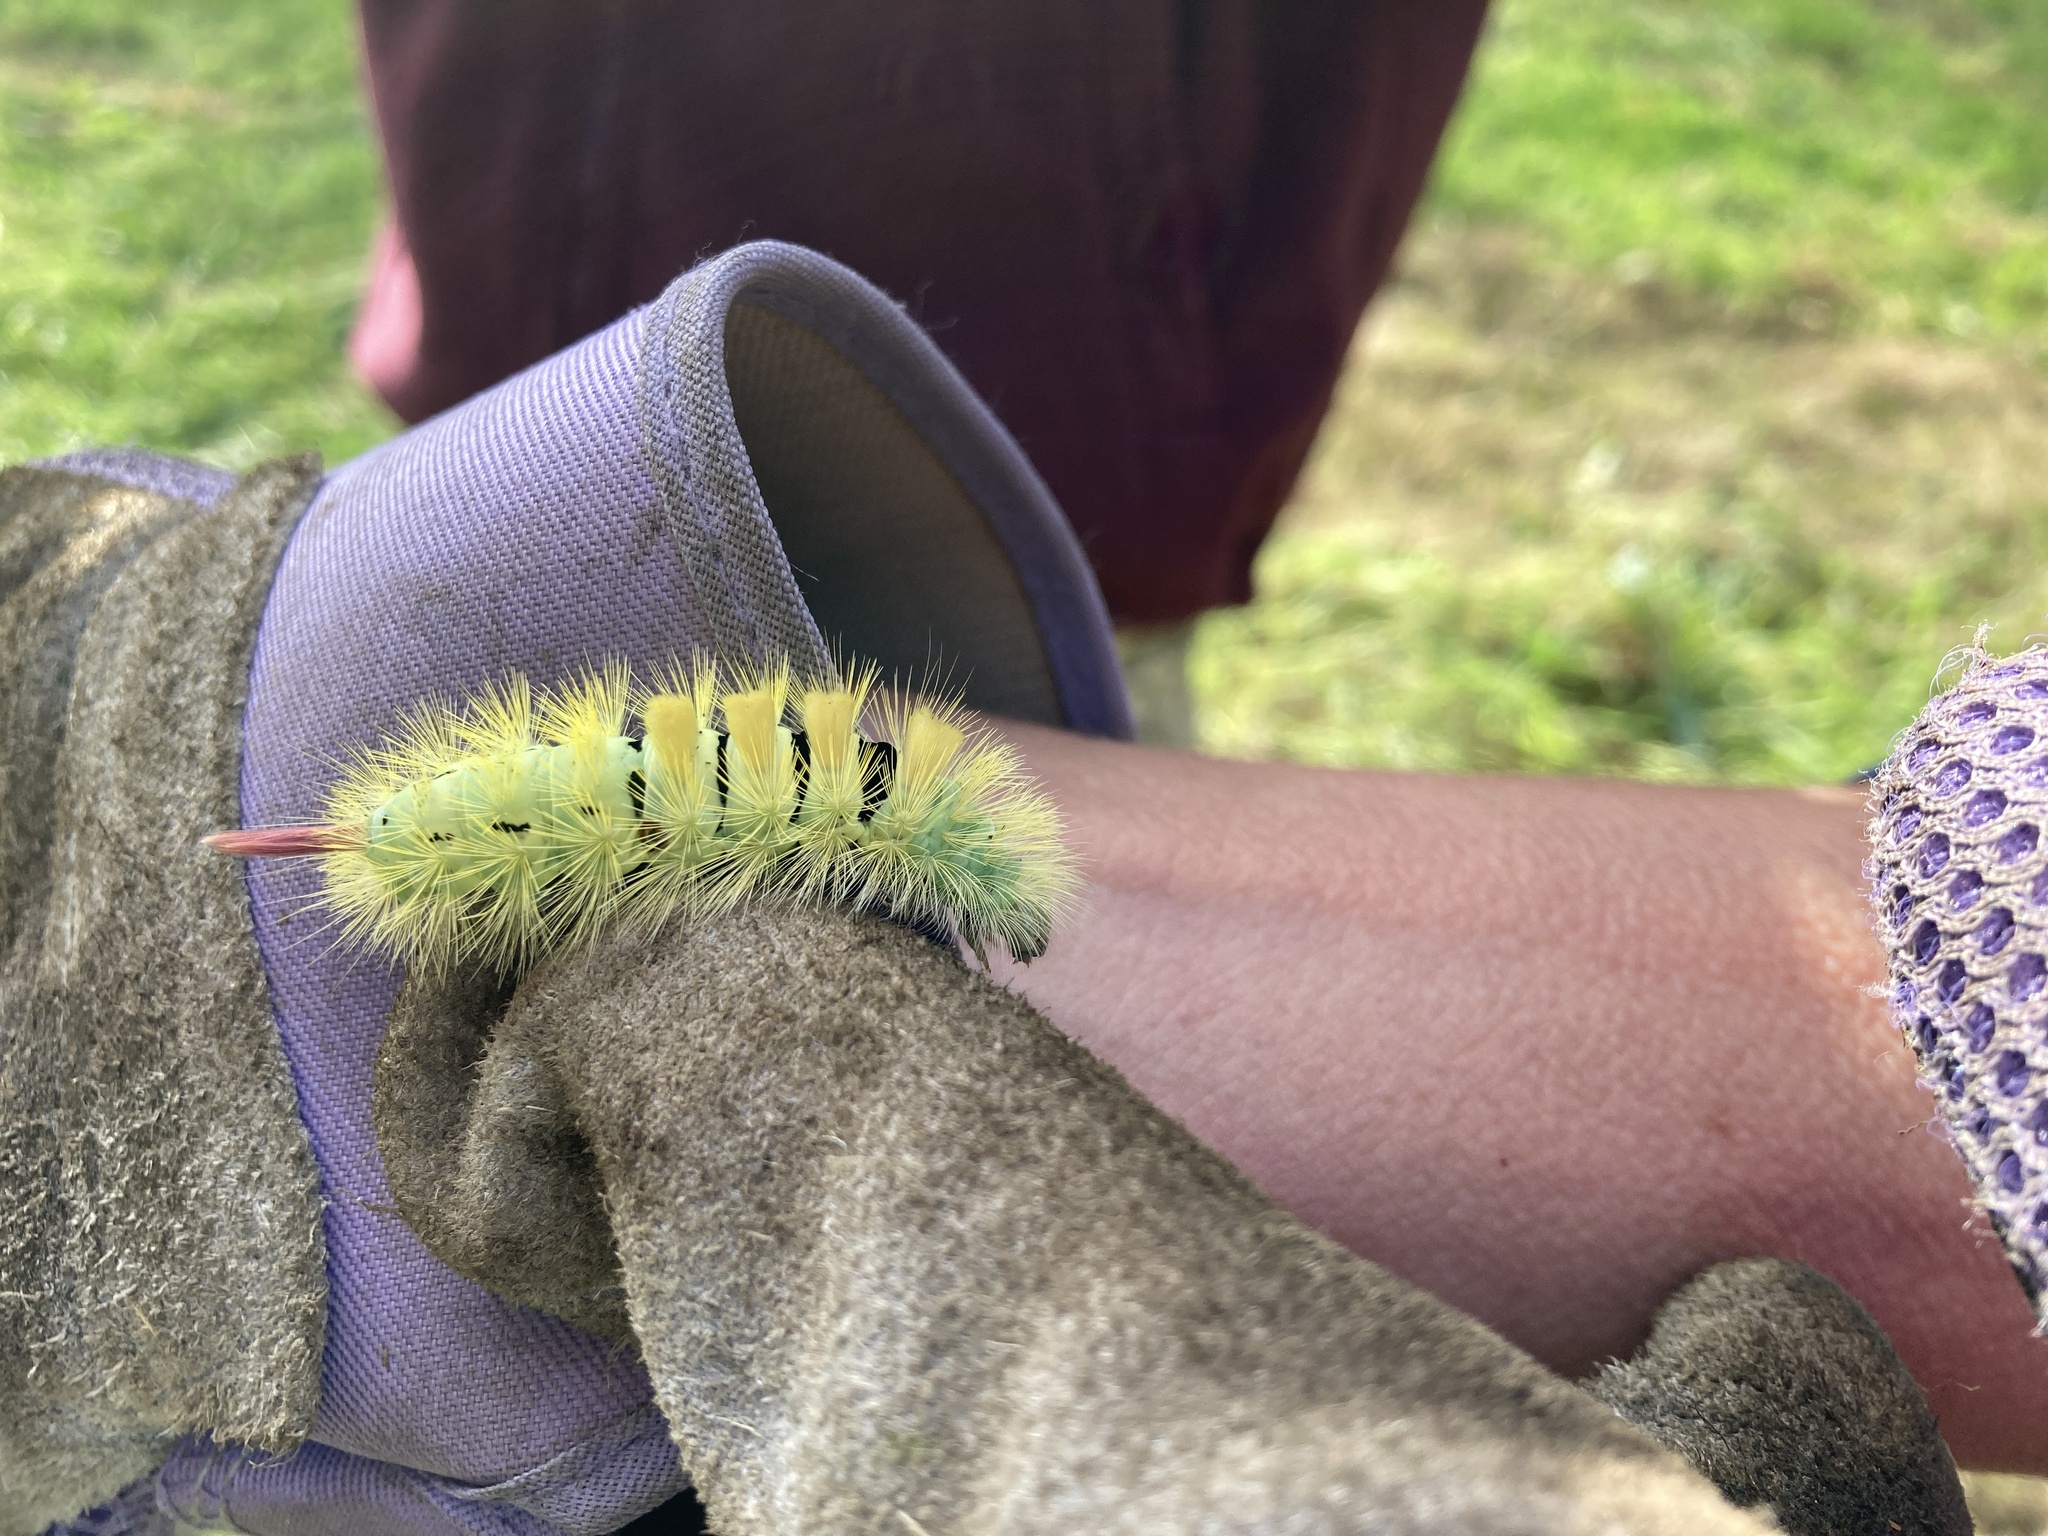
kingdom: Animalia
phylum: Arthropoda
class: Insecta
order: Lepidoptera
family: Erebidae
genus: Calliteara
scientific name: Calliteara pudibunda
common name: Pale tussock
